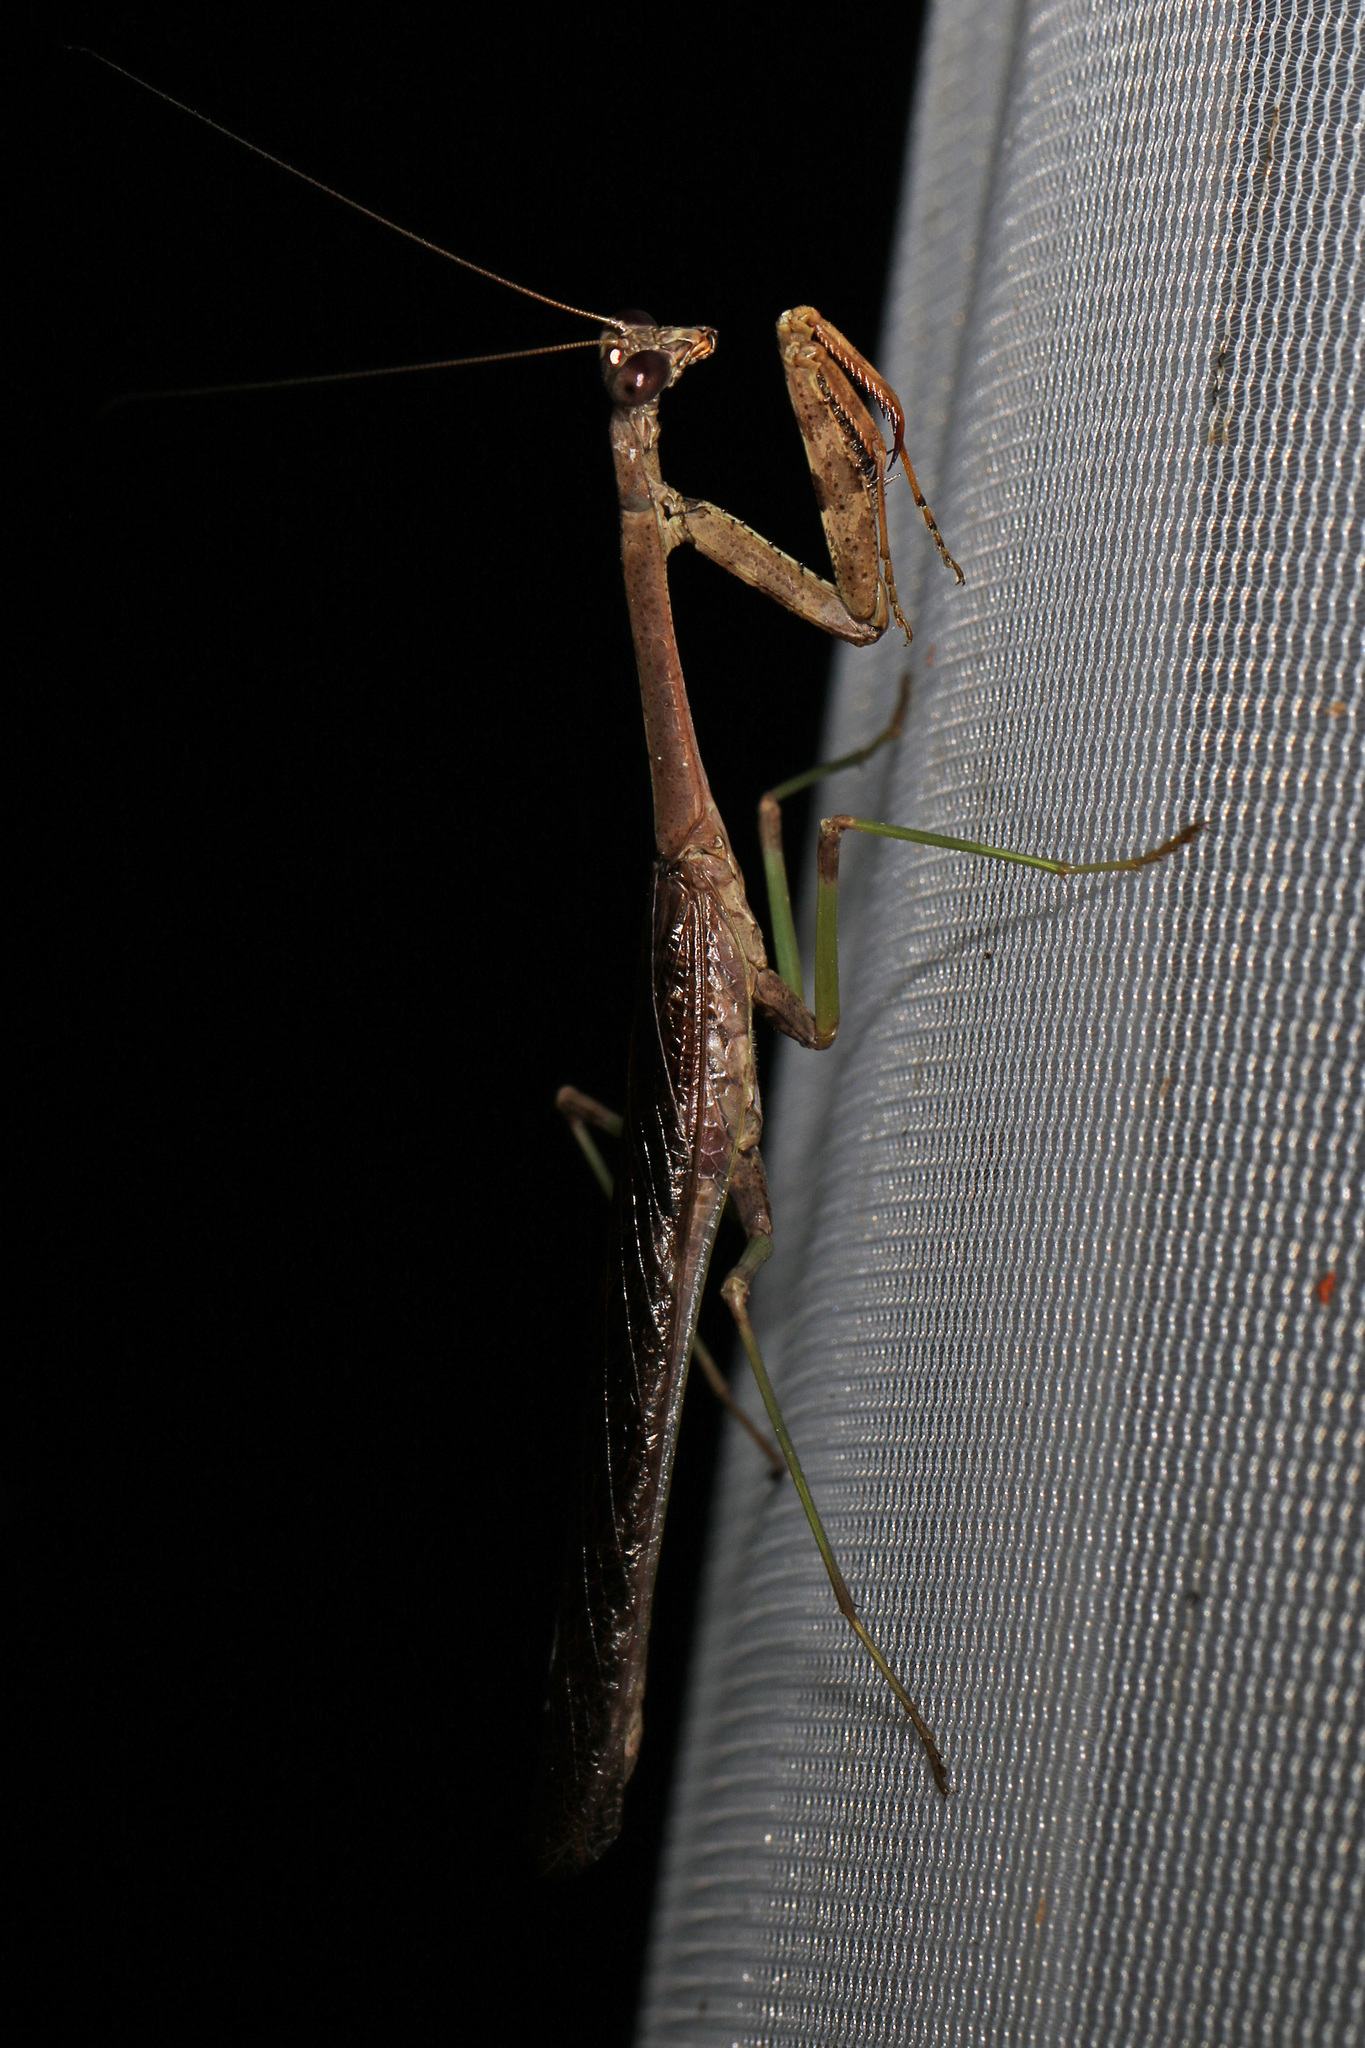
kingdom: Animalia
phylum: Arthropoda
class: Insecta
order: Mantodea
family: Mantidae
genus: Stagmomantis
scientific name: Stagmomantis carolina
